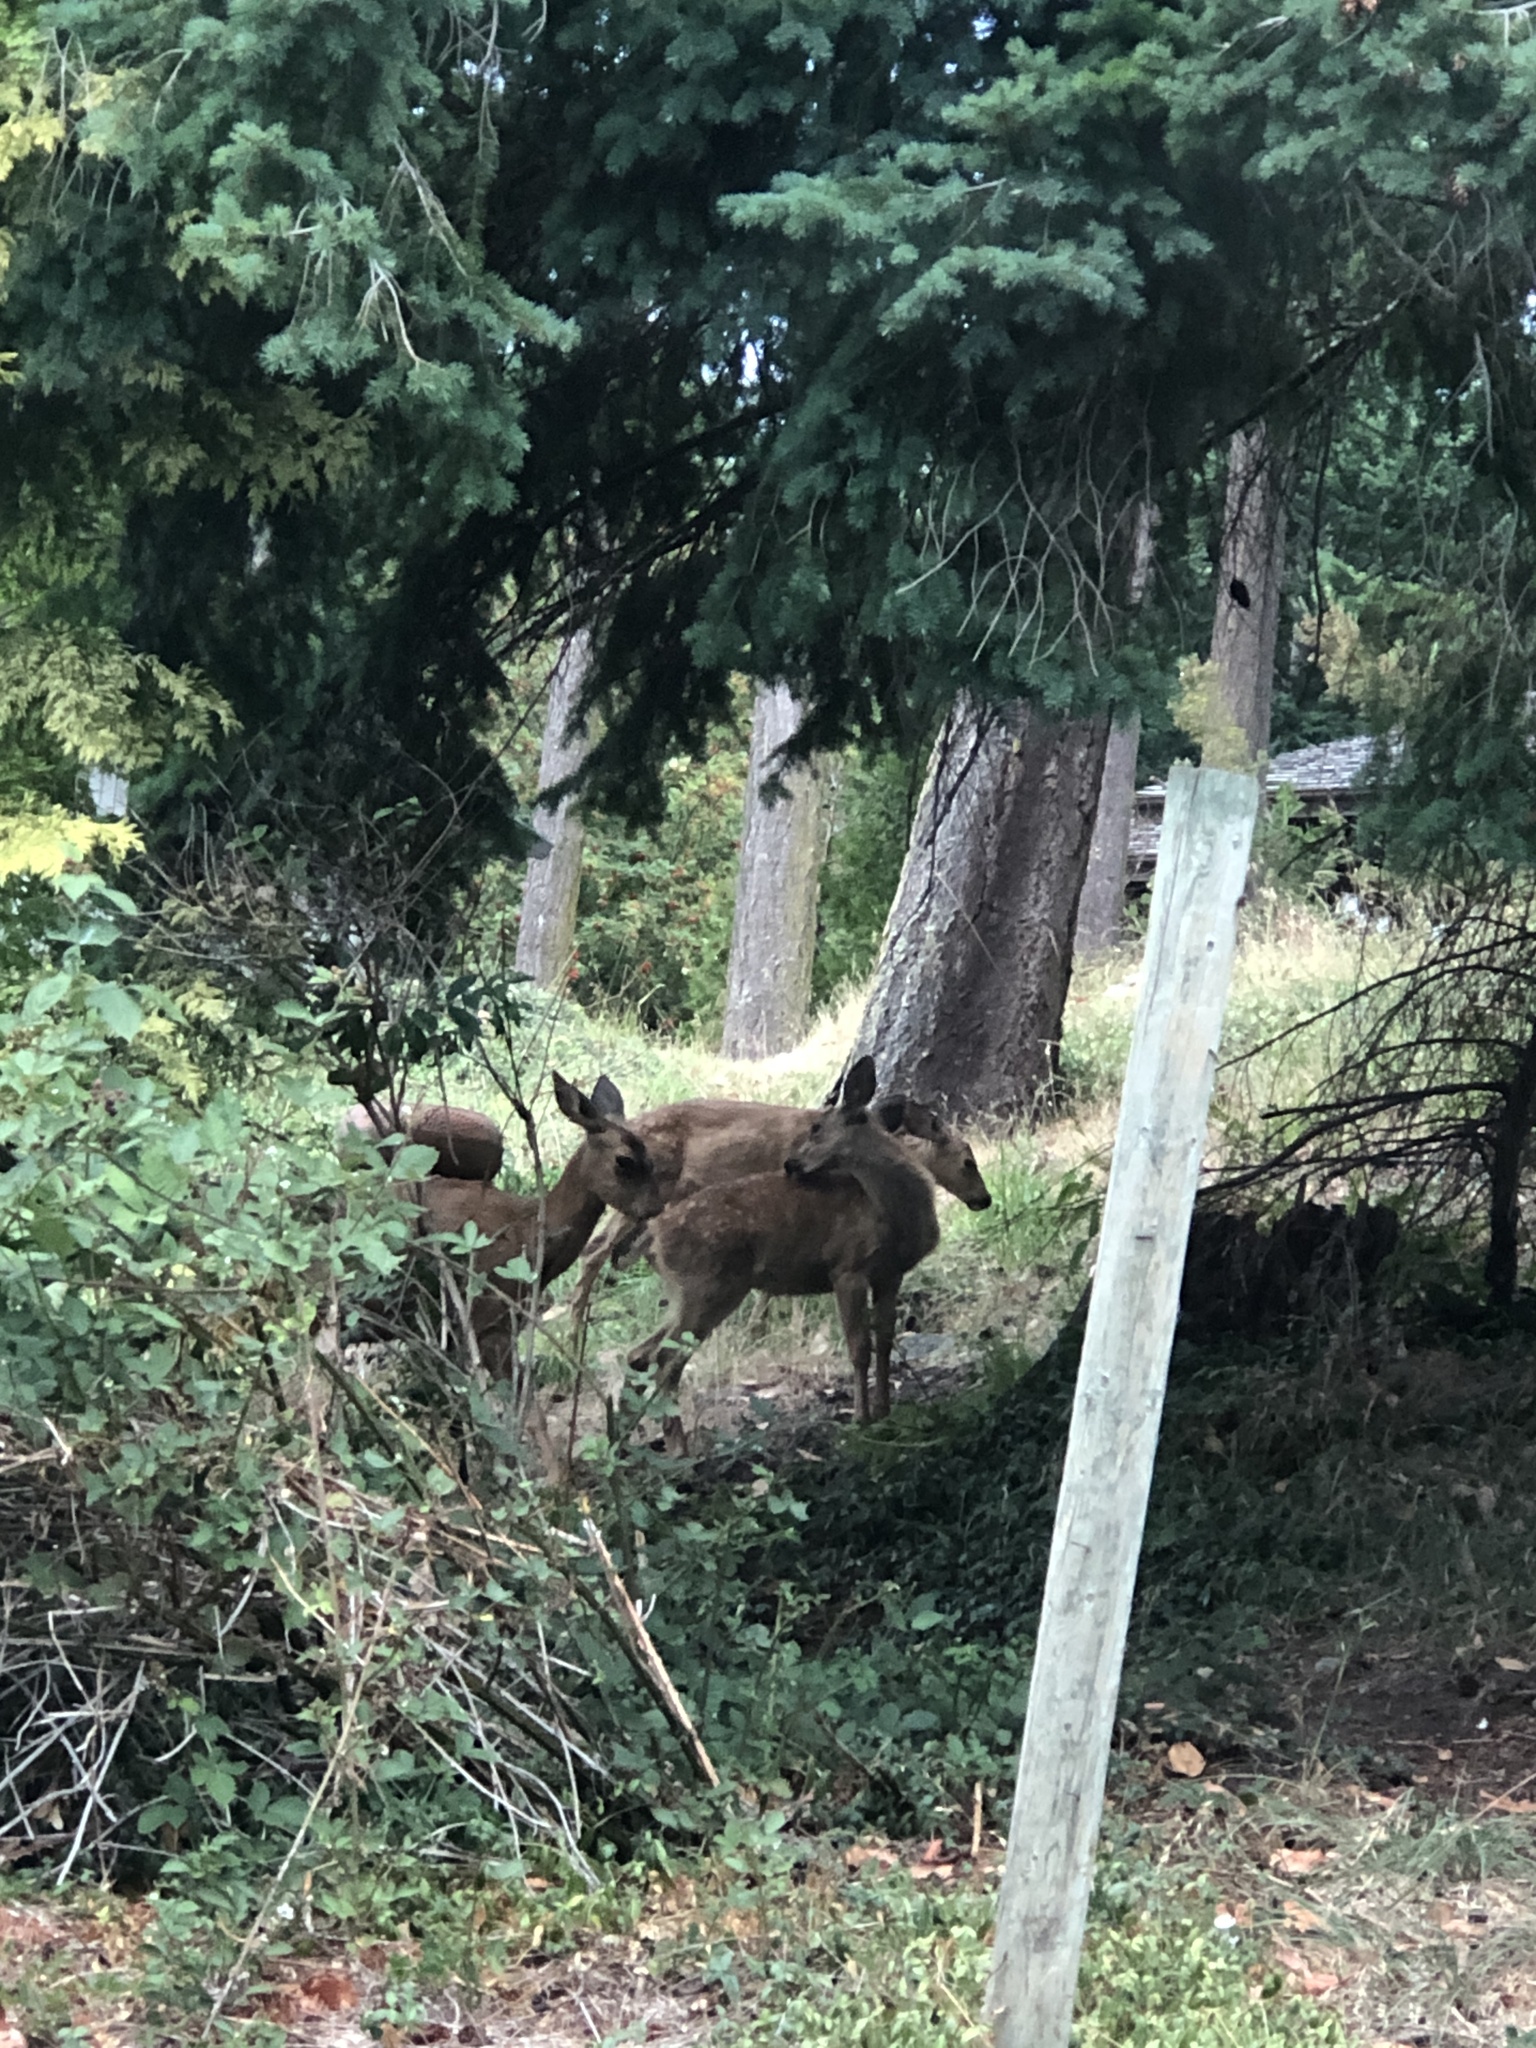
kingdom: Animalia
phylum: Chordata
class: Mammalia
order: Artiodactyla
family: Cervidae
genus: Odocoileus
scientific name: Odocoileus hemionus
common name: Mule deer
